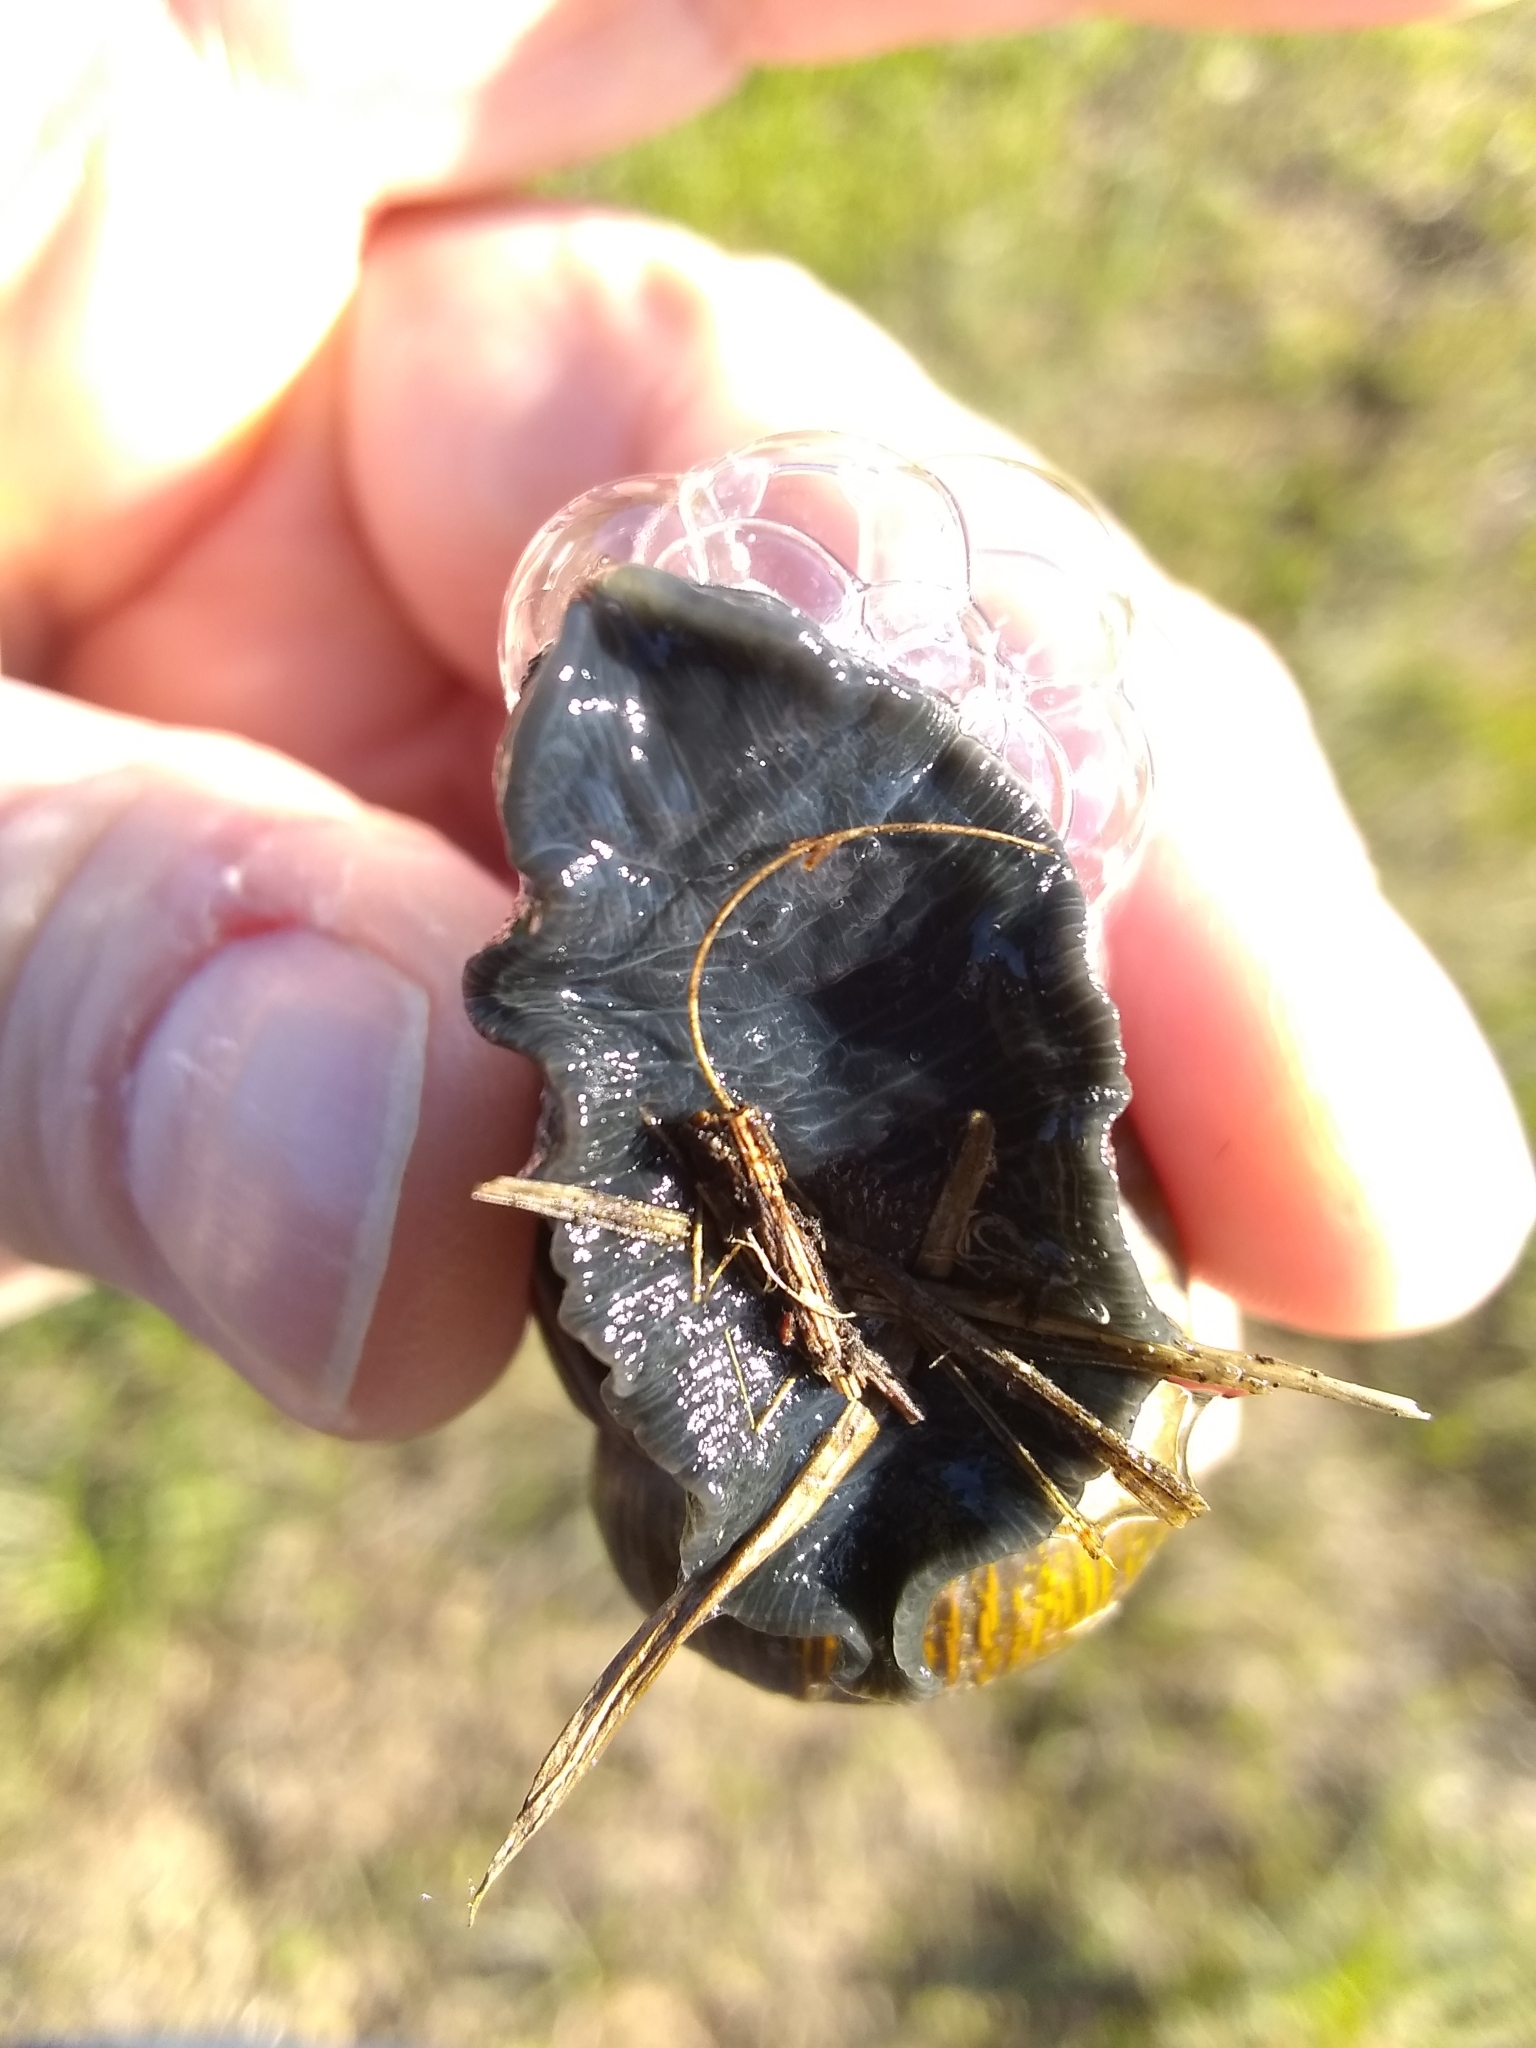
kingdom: Animalia
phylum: Mollusca
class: Gastropoda
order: Stylommatophora
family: Helicidae
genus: Cantareus
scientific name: Cantareus apertus
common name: Green gardensnail
